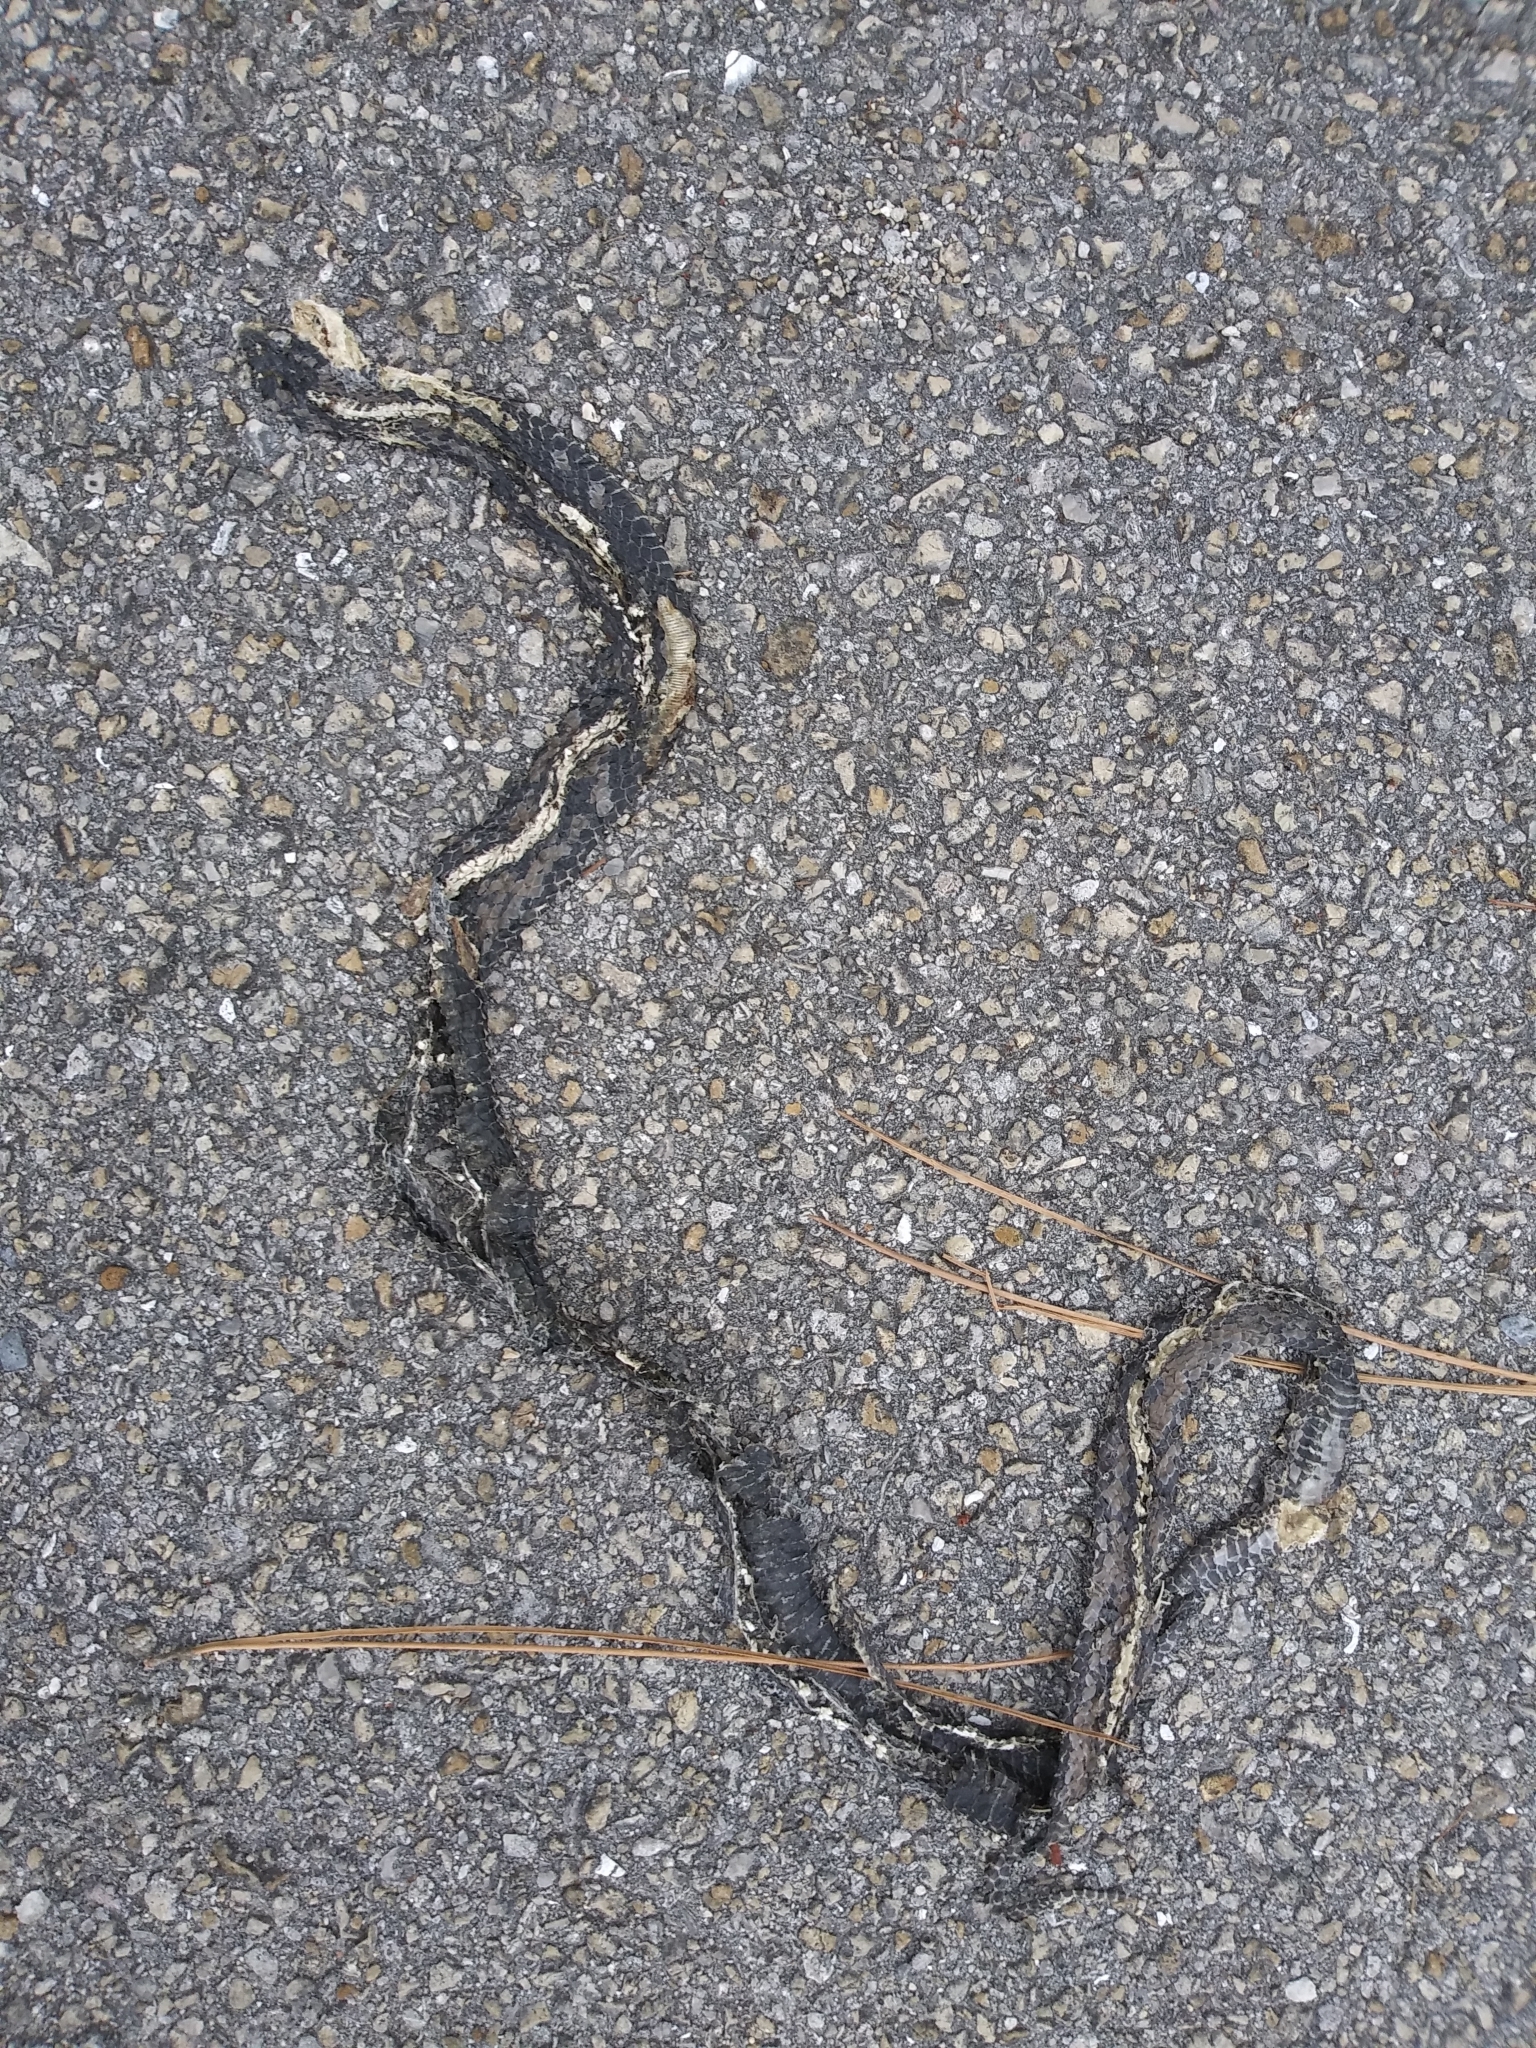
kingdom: Animalia
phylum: Chordata
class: Squamata
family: Colubridae
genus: Coluber
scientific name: Coluber constrictor
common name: Eastern racer
